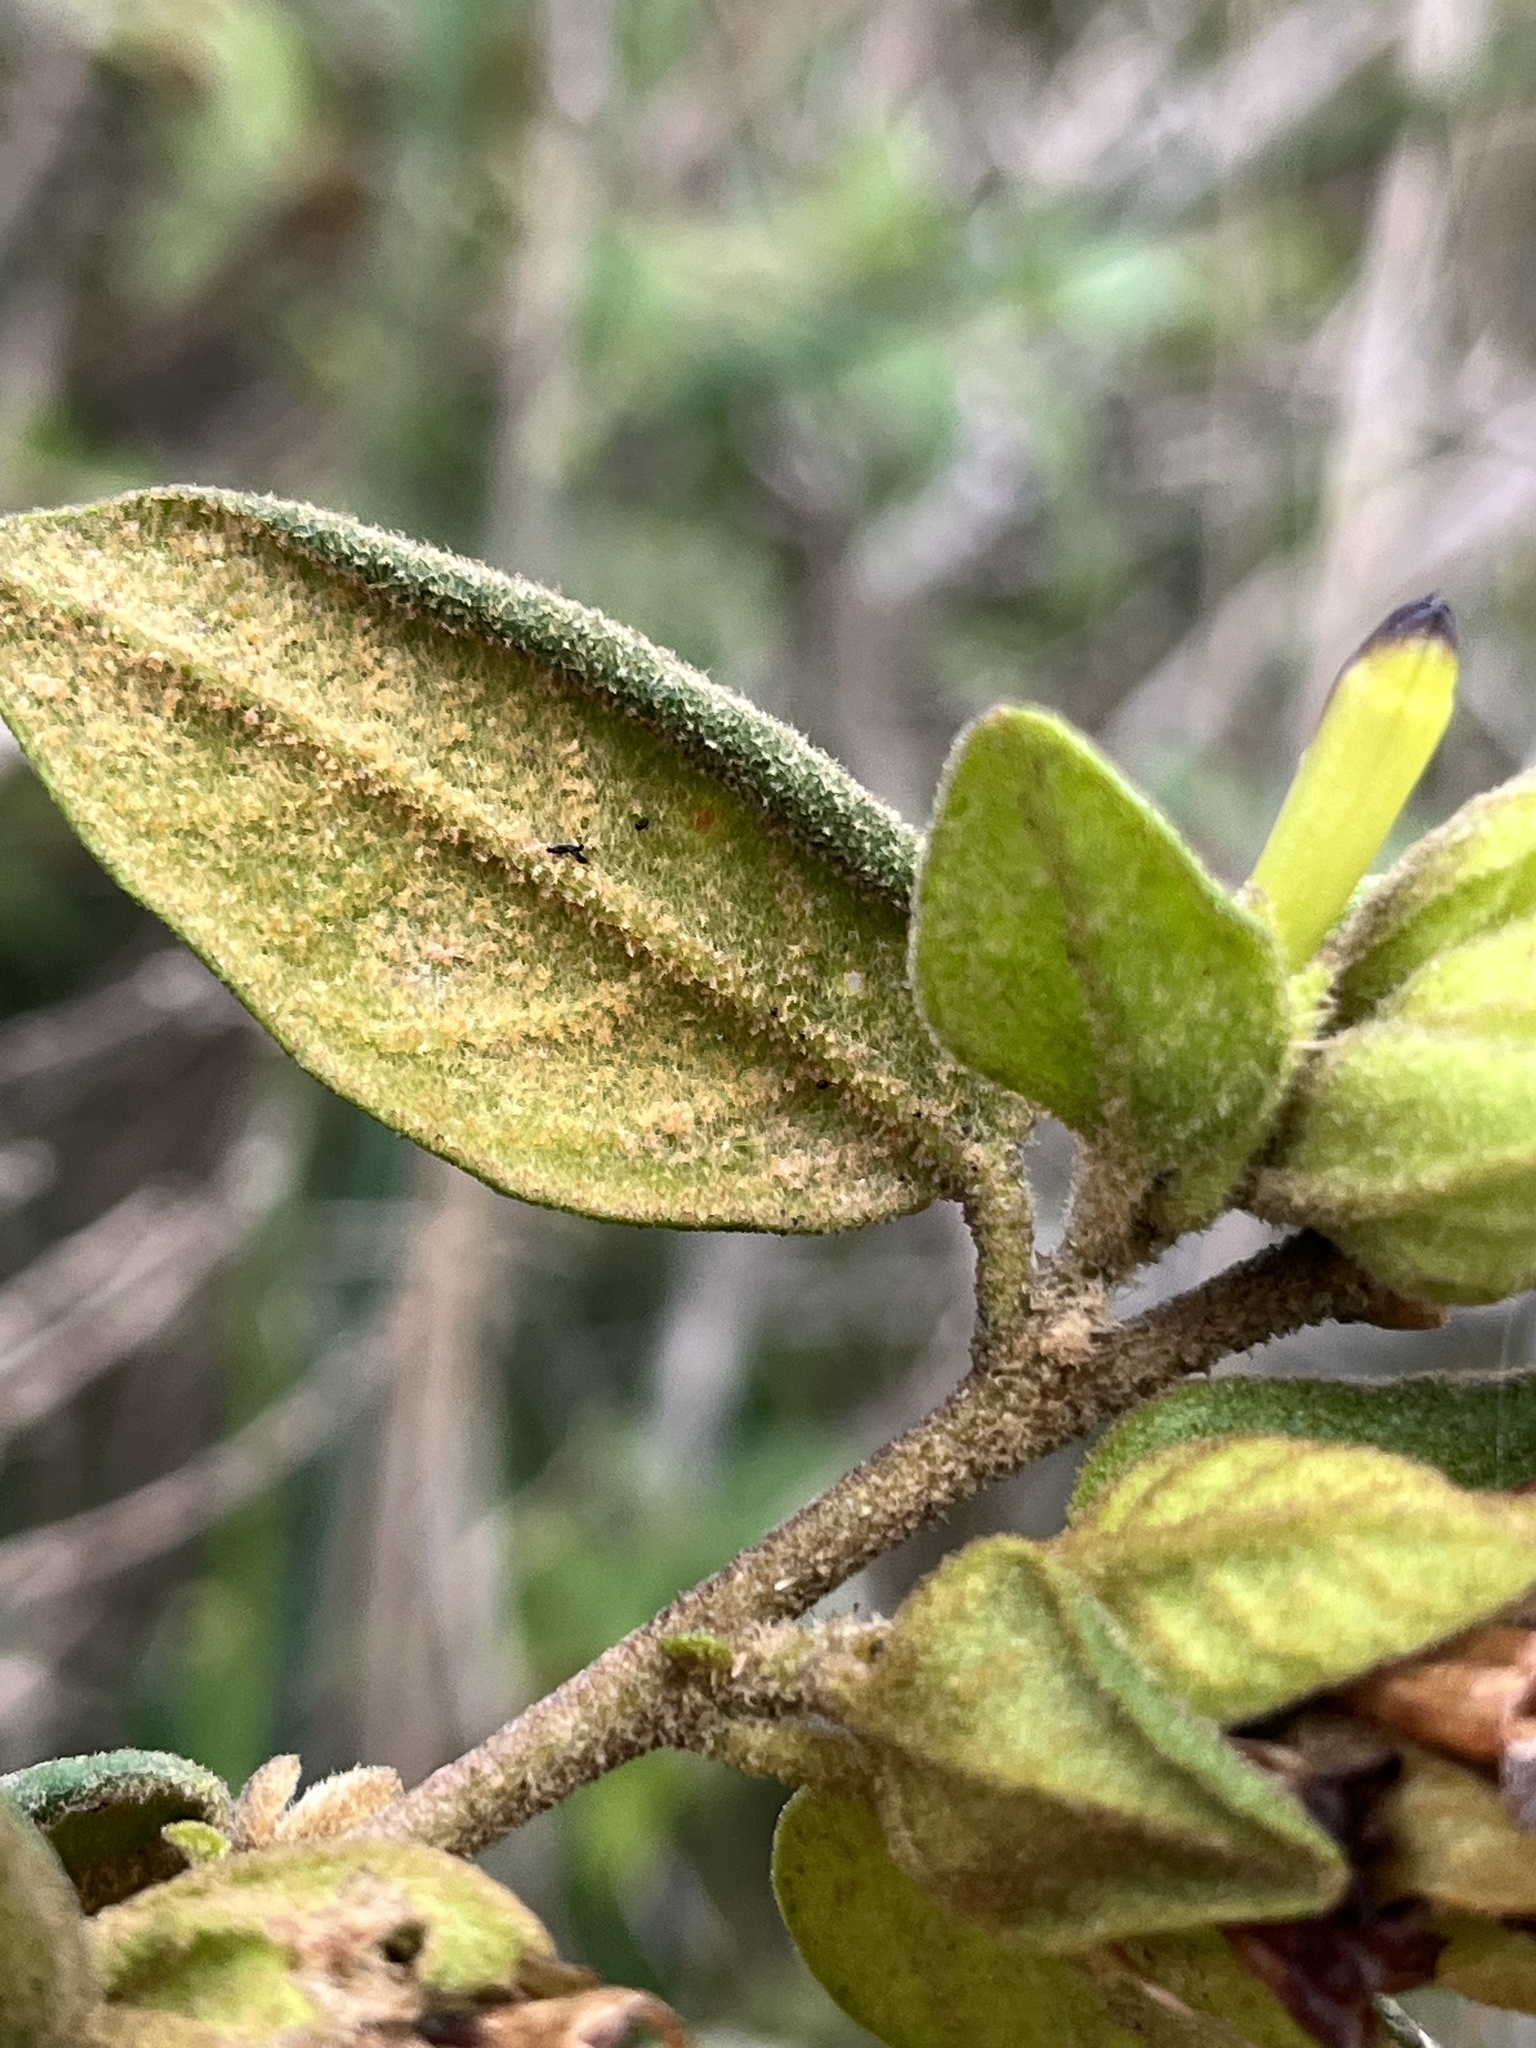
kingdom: Plantae
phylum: Tracheophyta
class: Magnoliopsida
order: Solanales
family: Solanaceae
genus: Cestrum
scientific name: Cestrum tomentosum
